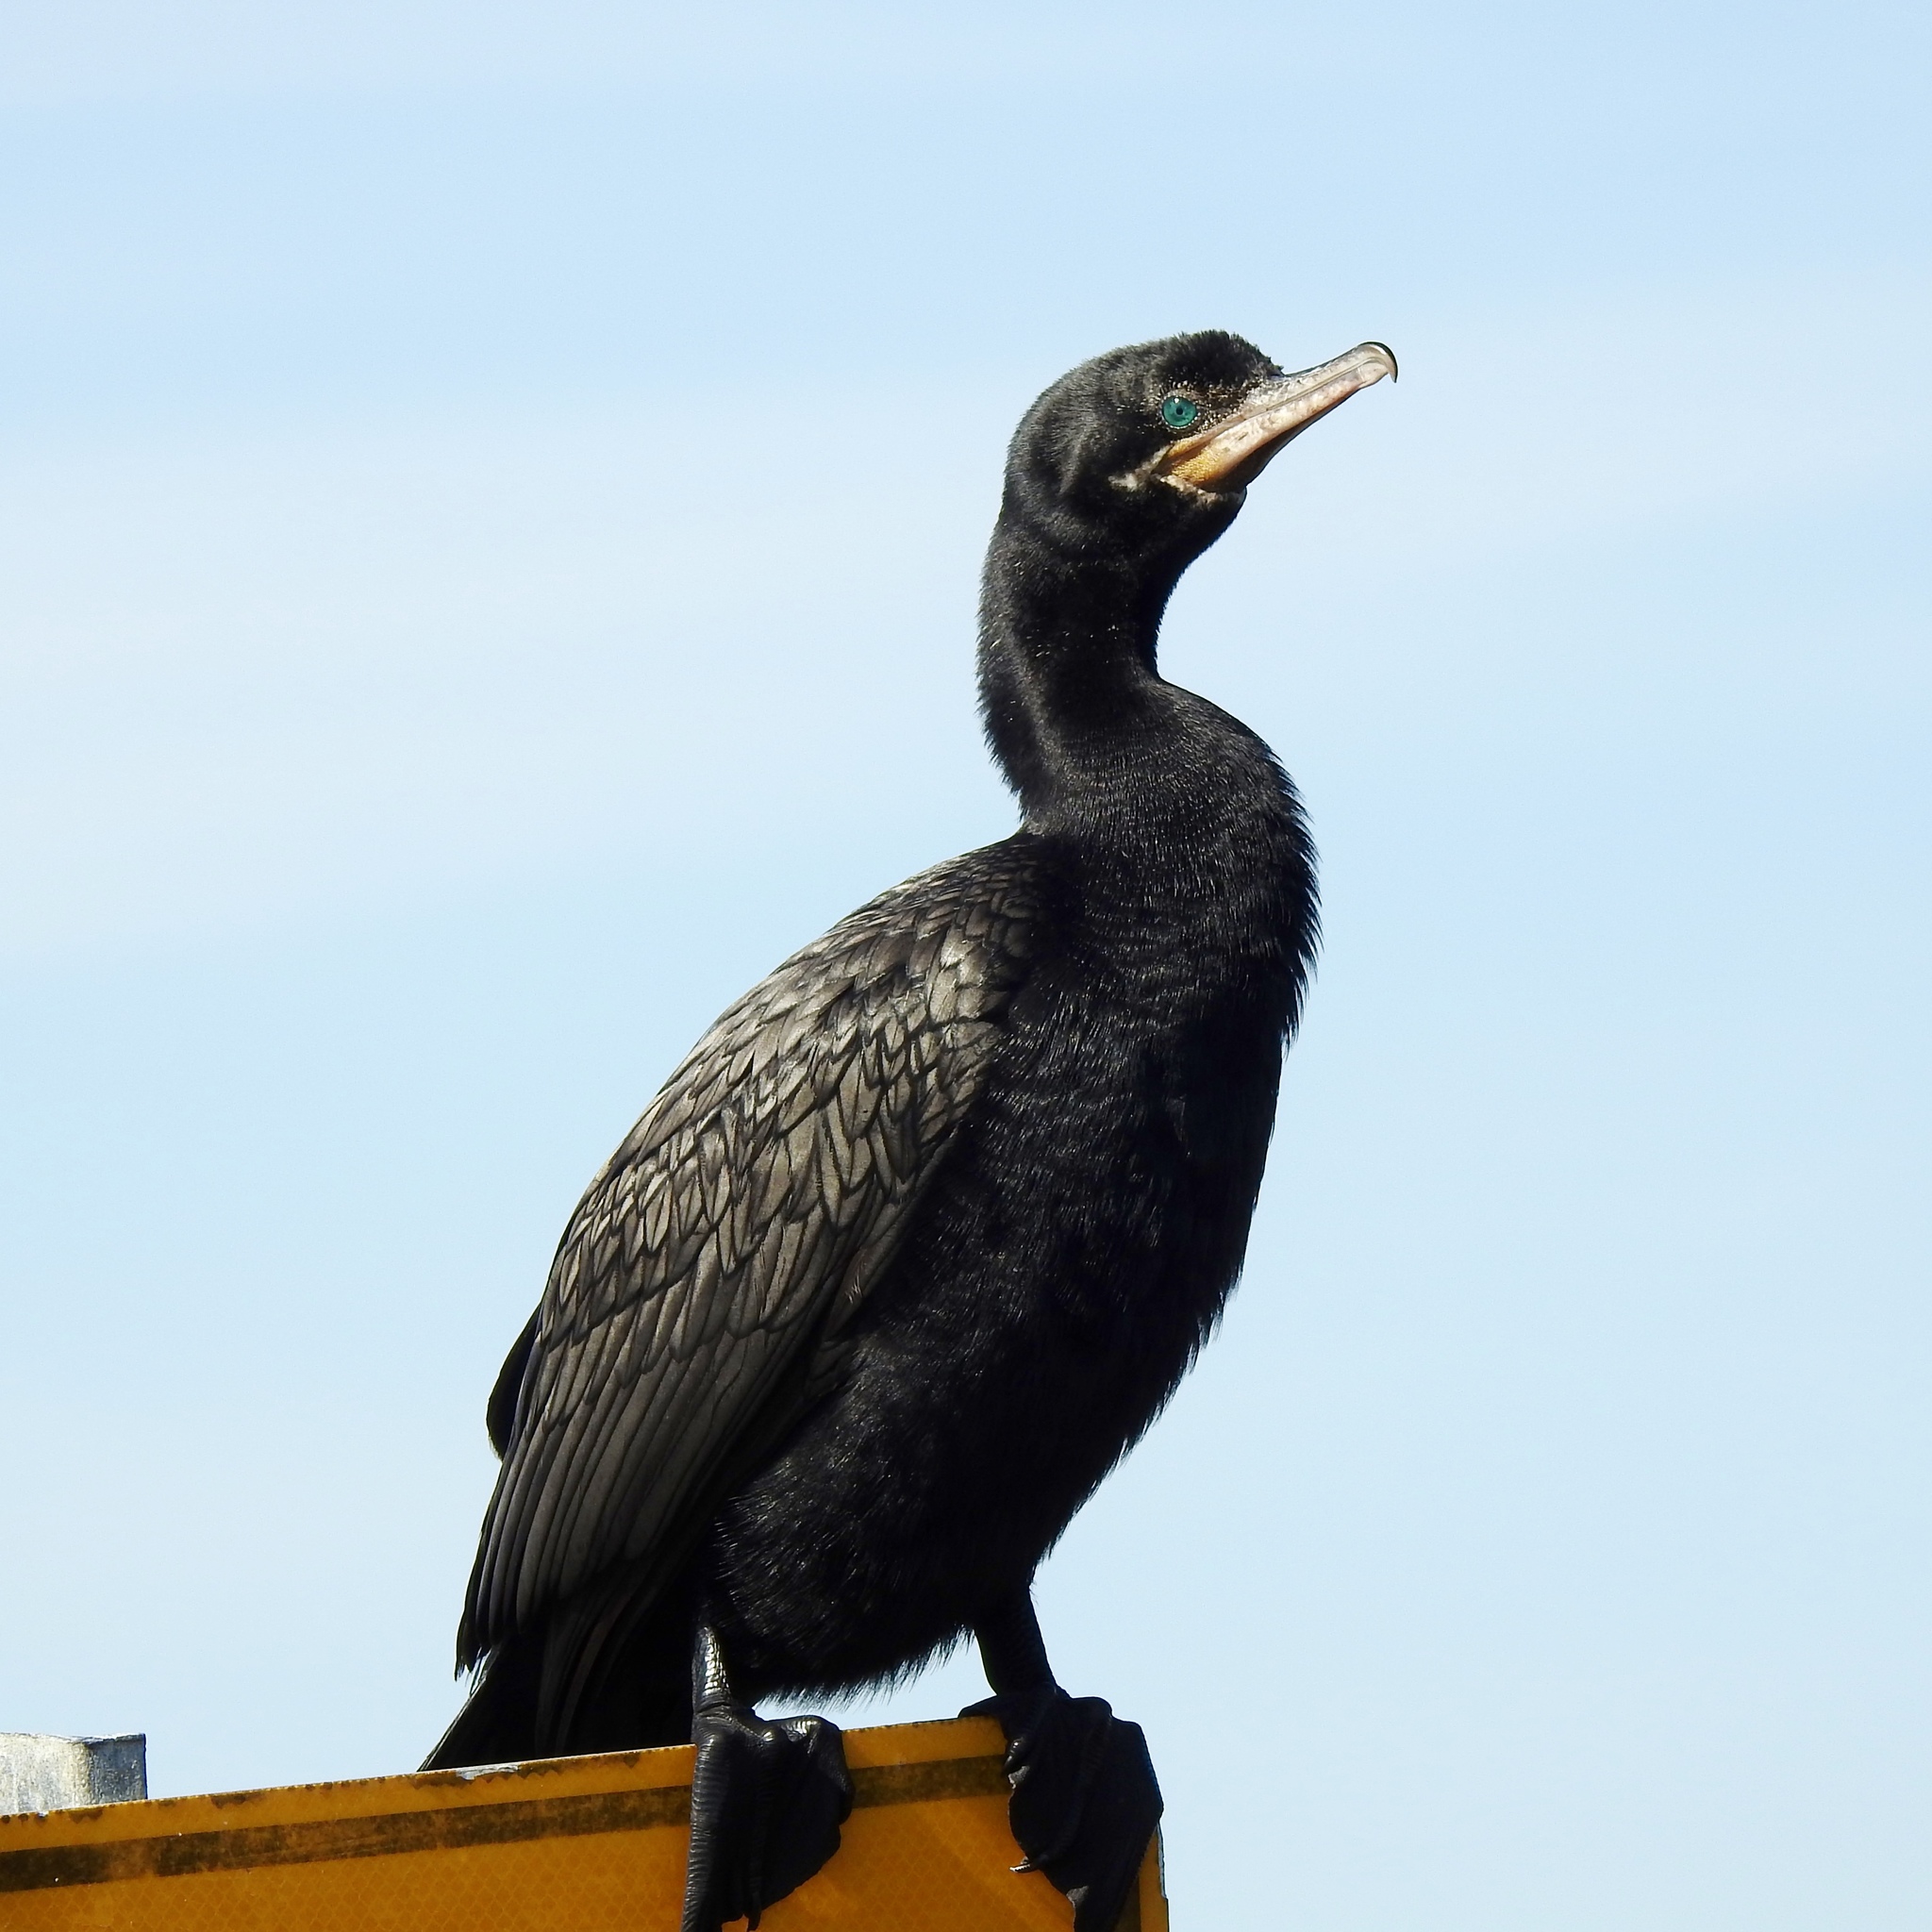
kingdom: Animalia
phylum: Chordata
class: Aves
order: Suliformes
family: Phalacrocoracidae
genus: Phalacrocorax
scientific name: Phalacrocorax brasilianus
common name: Neotropic cormorant
